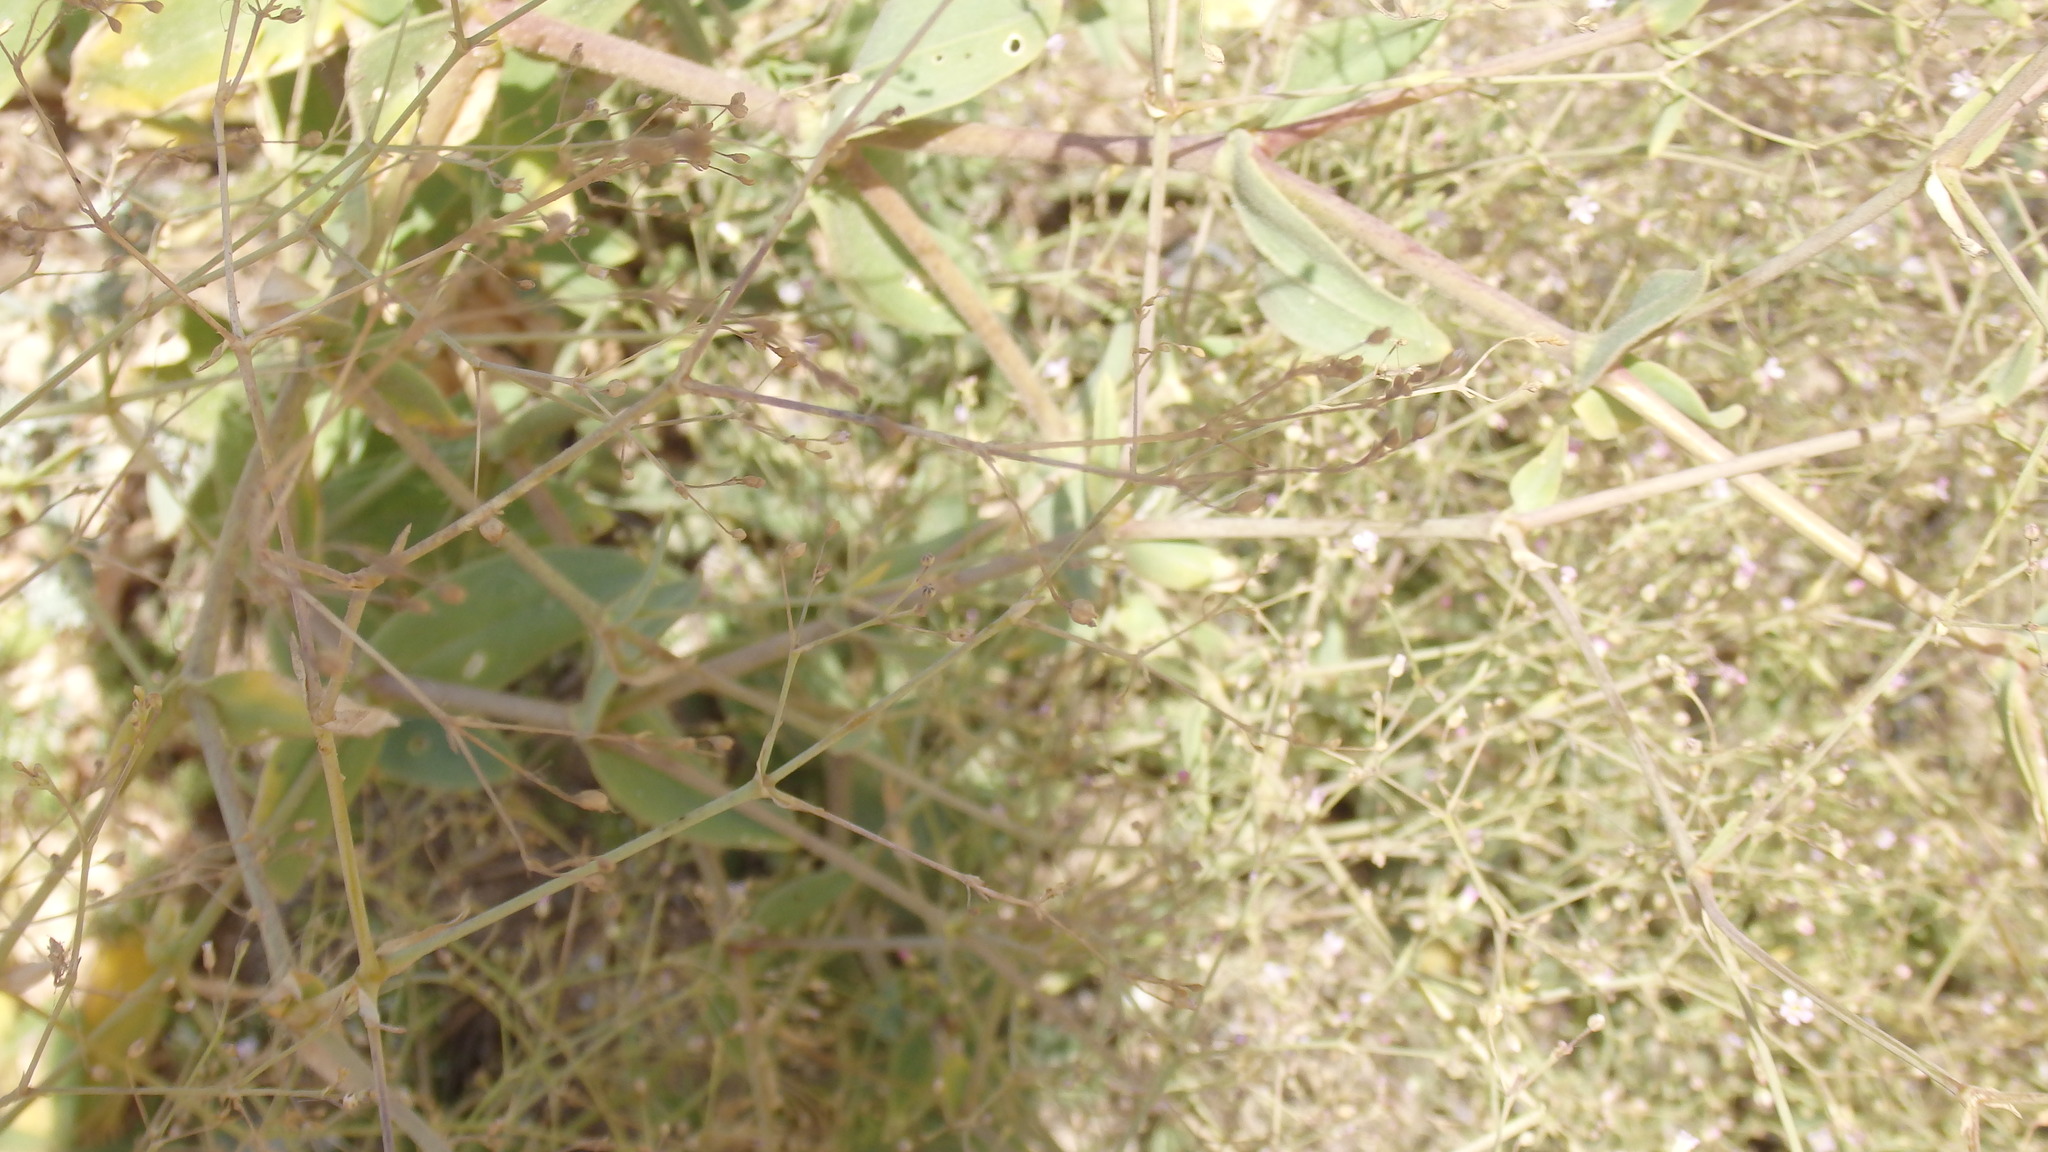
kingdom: Plantae
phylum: Tracheophyta
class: Magnoliopsida
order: Caryophyllales
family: Caryophyllaceae
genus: Gypsophila
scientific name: Gypsophila perfoliata
